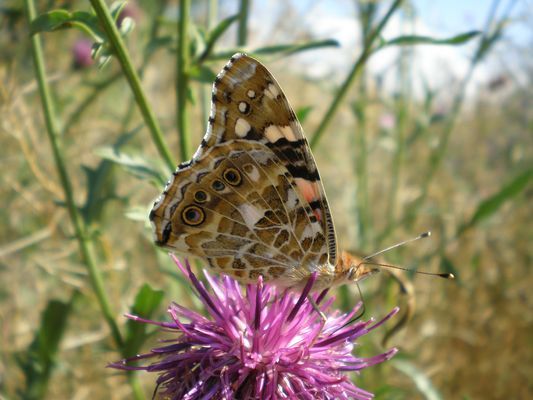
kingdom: Animalia
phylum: Arthropoda
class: Insecta
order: Lepidoptera
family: Nymphalidae
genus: Vanessa
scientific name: Vanessa cardui
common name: Painted lady
